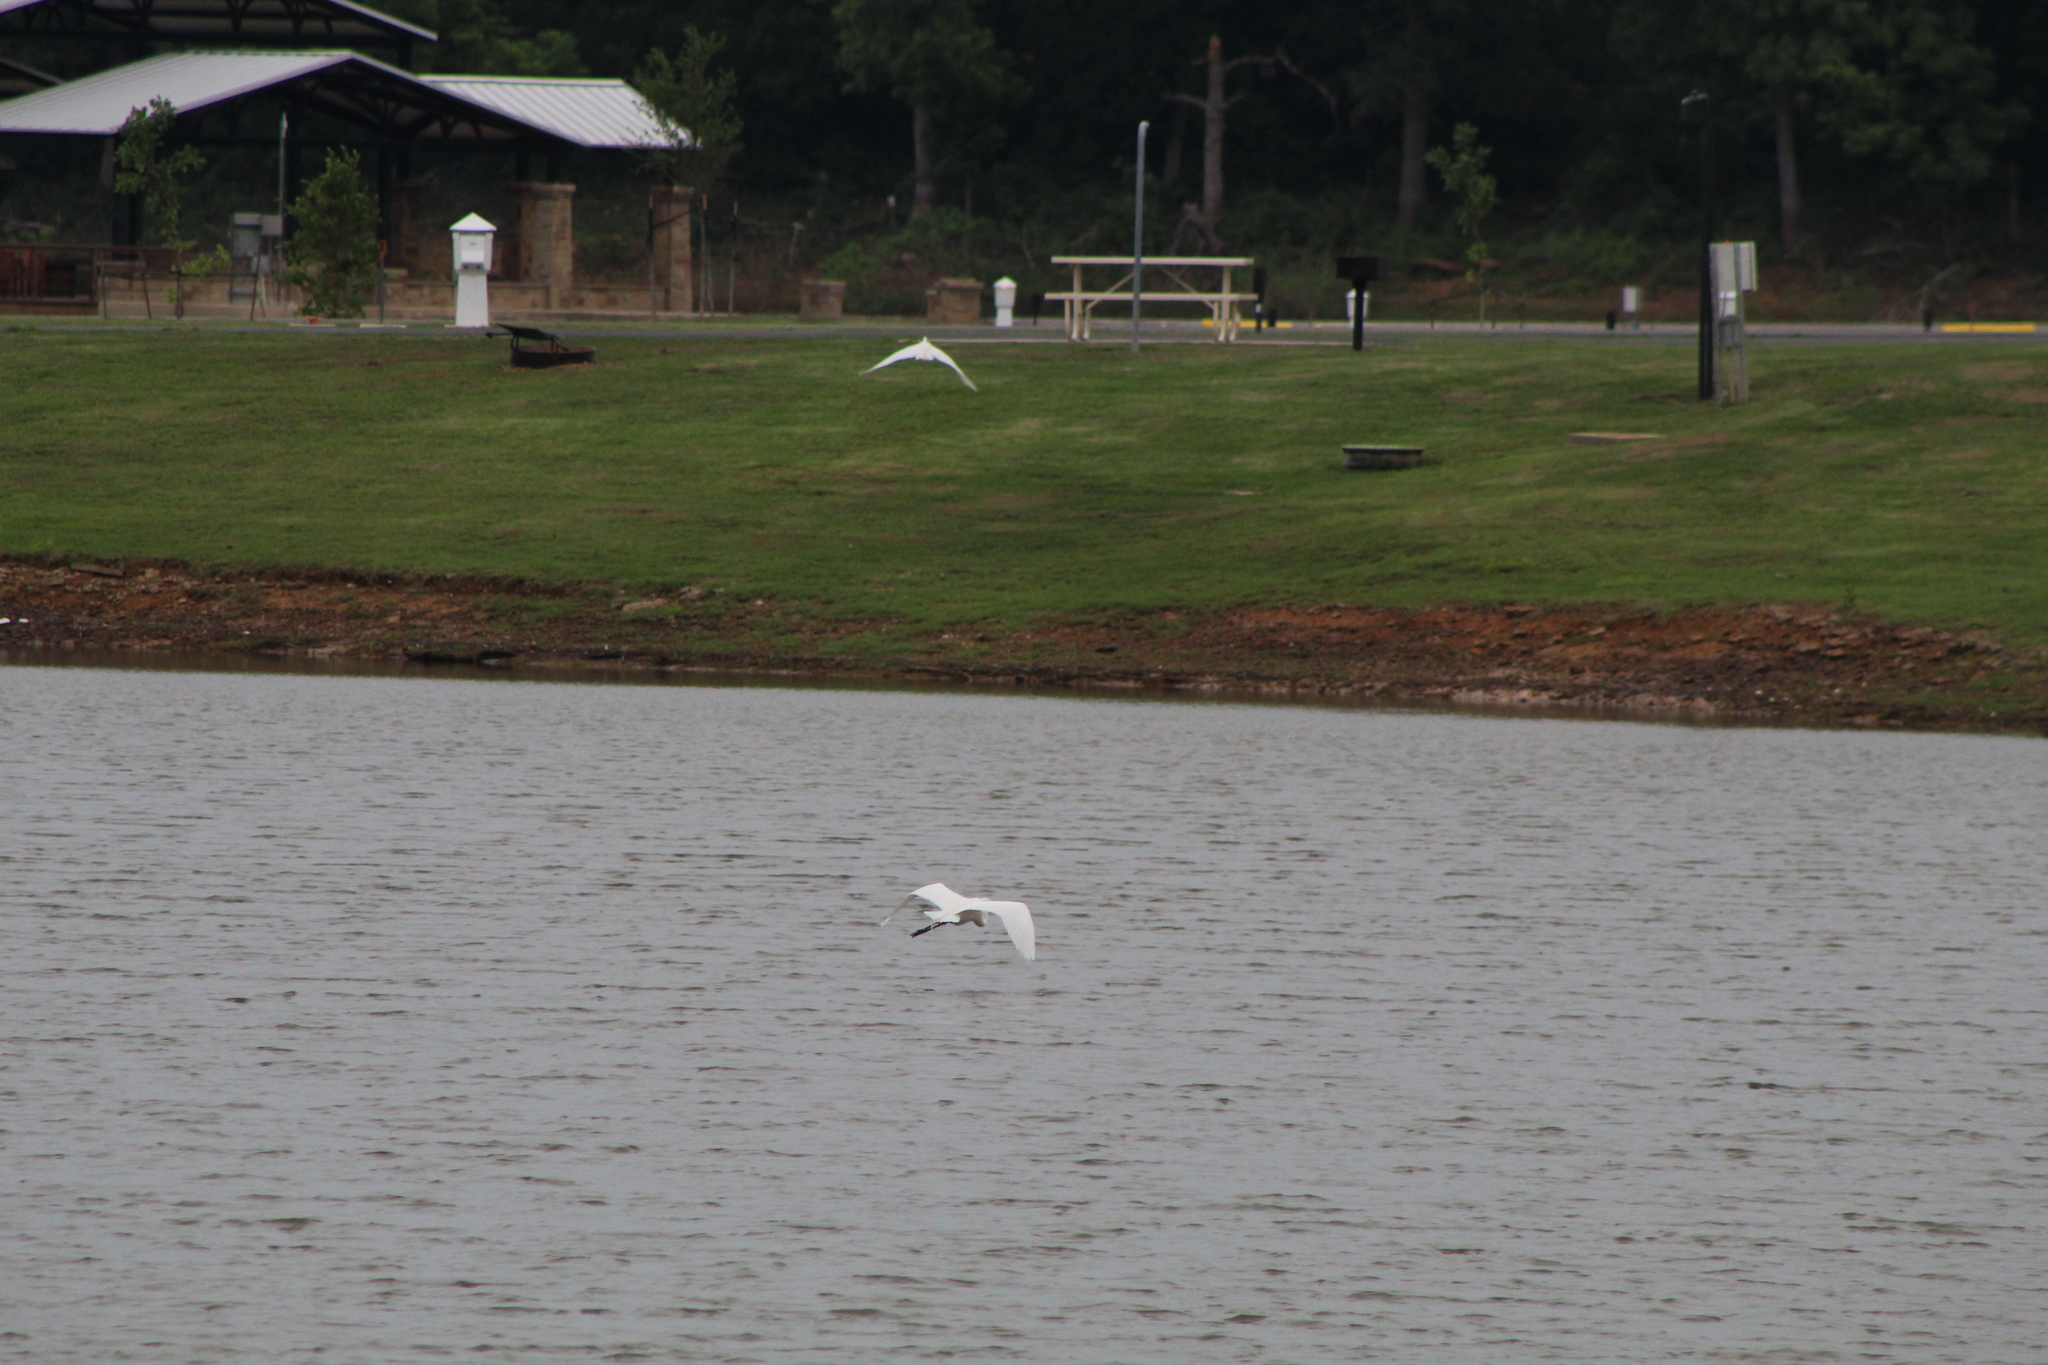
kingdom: Animalia
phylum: Chordata
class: Aves
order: Pelecaniformes
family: Ardeidae
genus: Ardea
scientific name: Ardea alba
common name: Great egret
